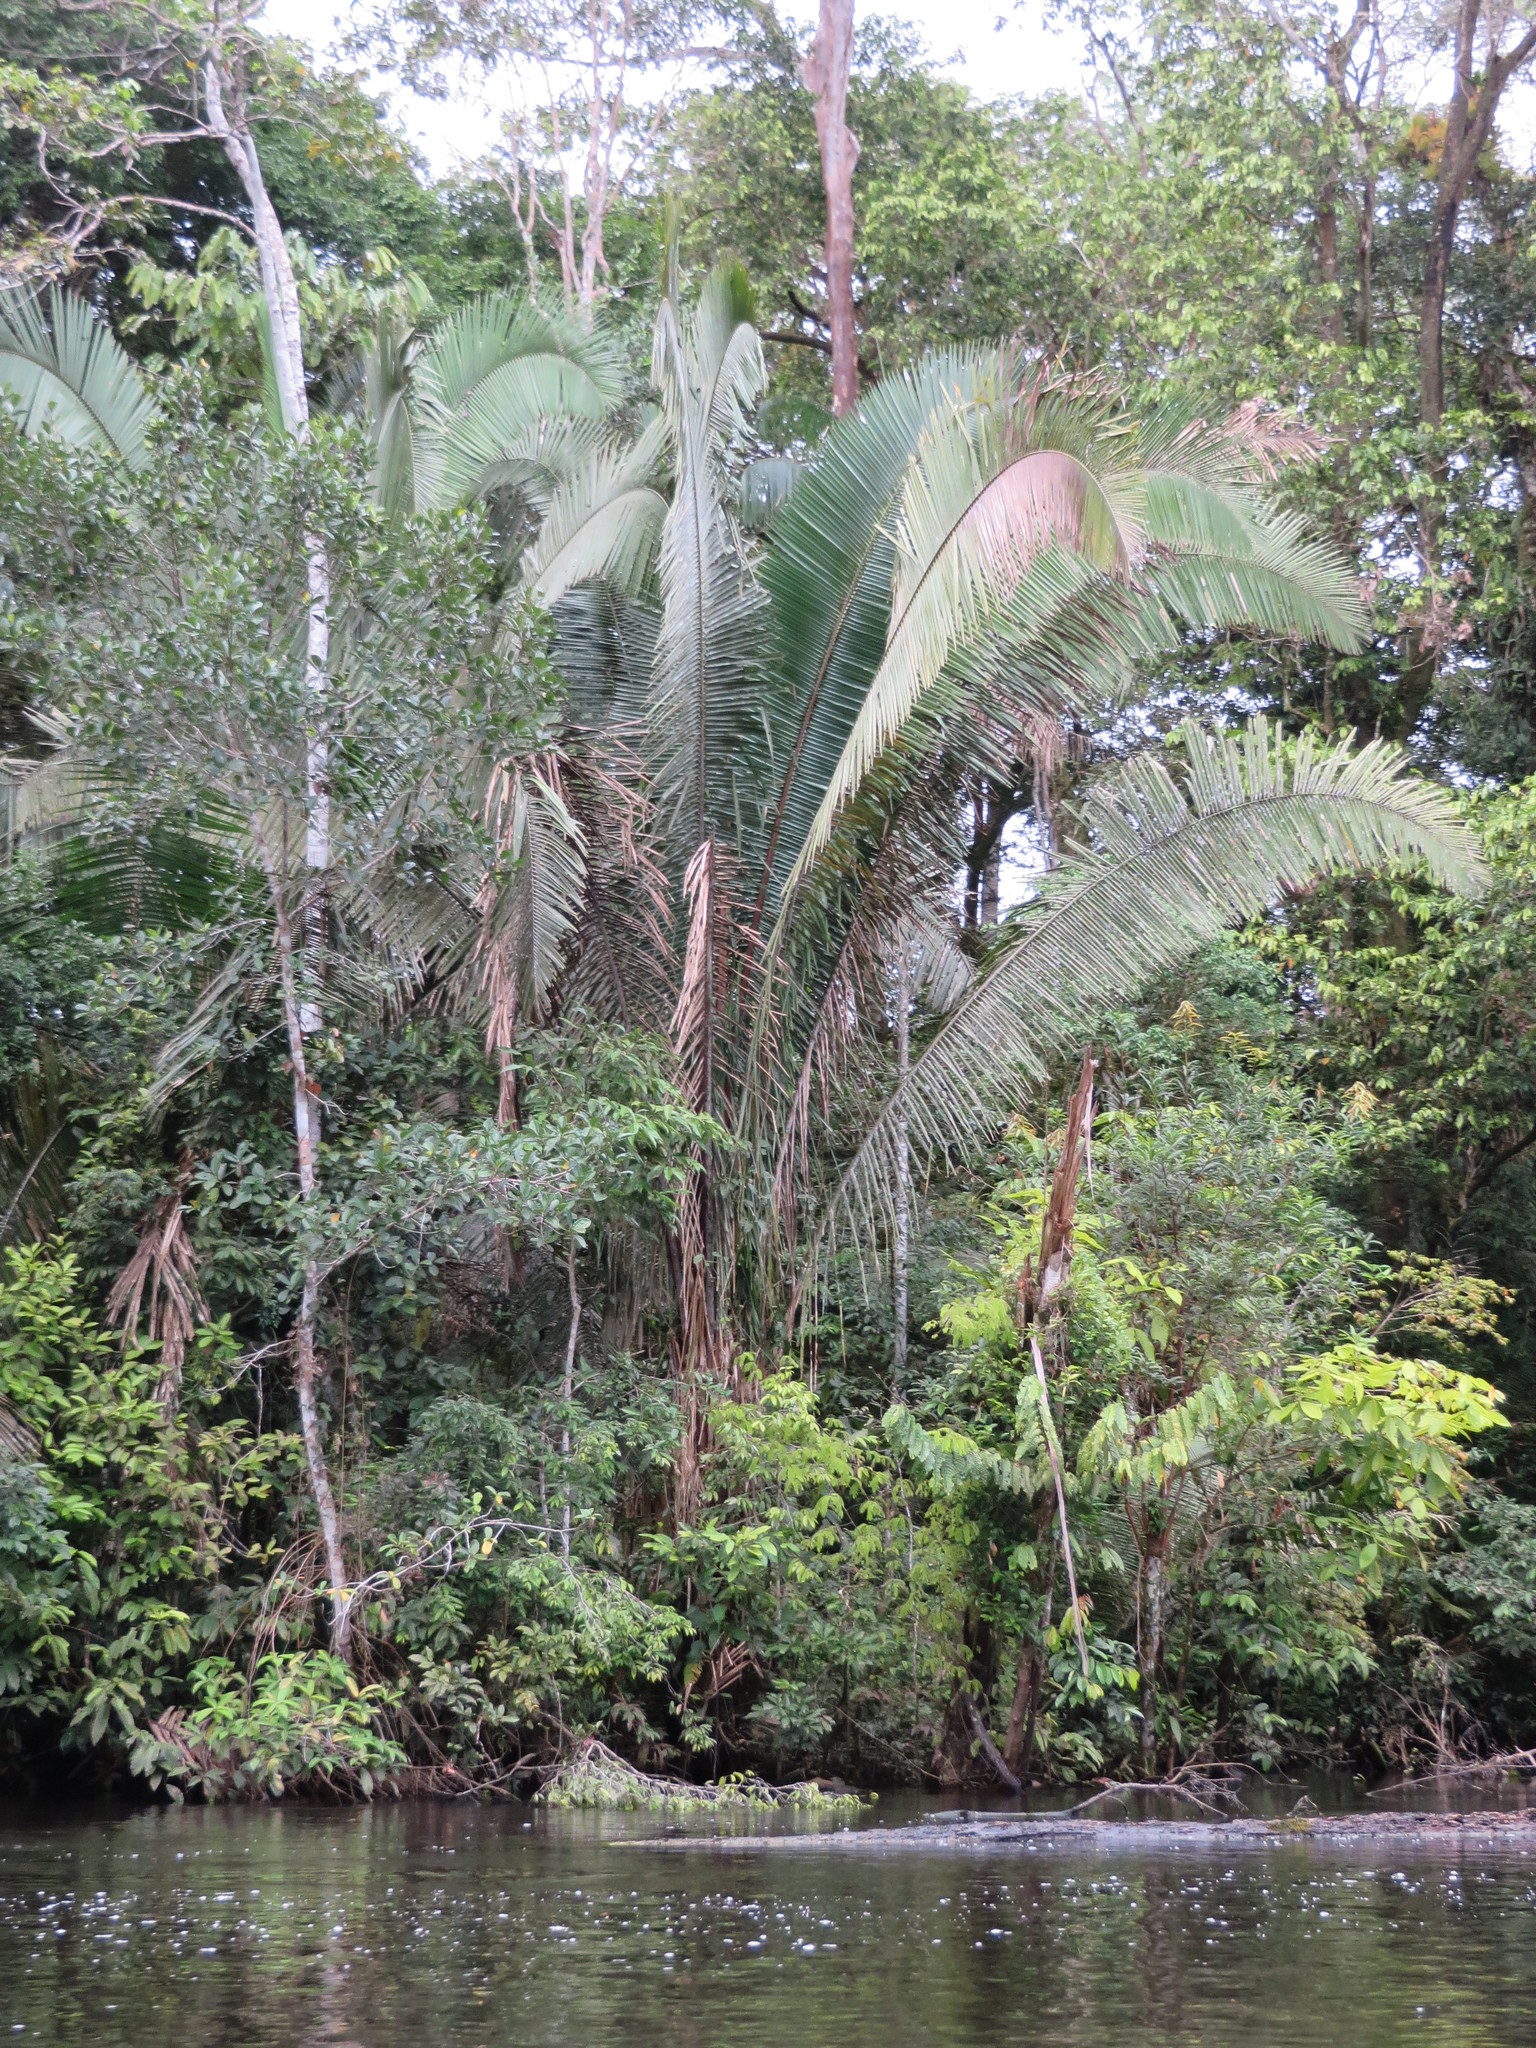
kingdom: Plantae
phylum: Tracheophyta
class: Liliopsida
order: Arecales
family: Arecaceae
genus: Attalea
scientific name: Attalea butyracea
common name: Kuakish
